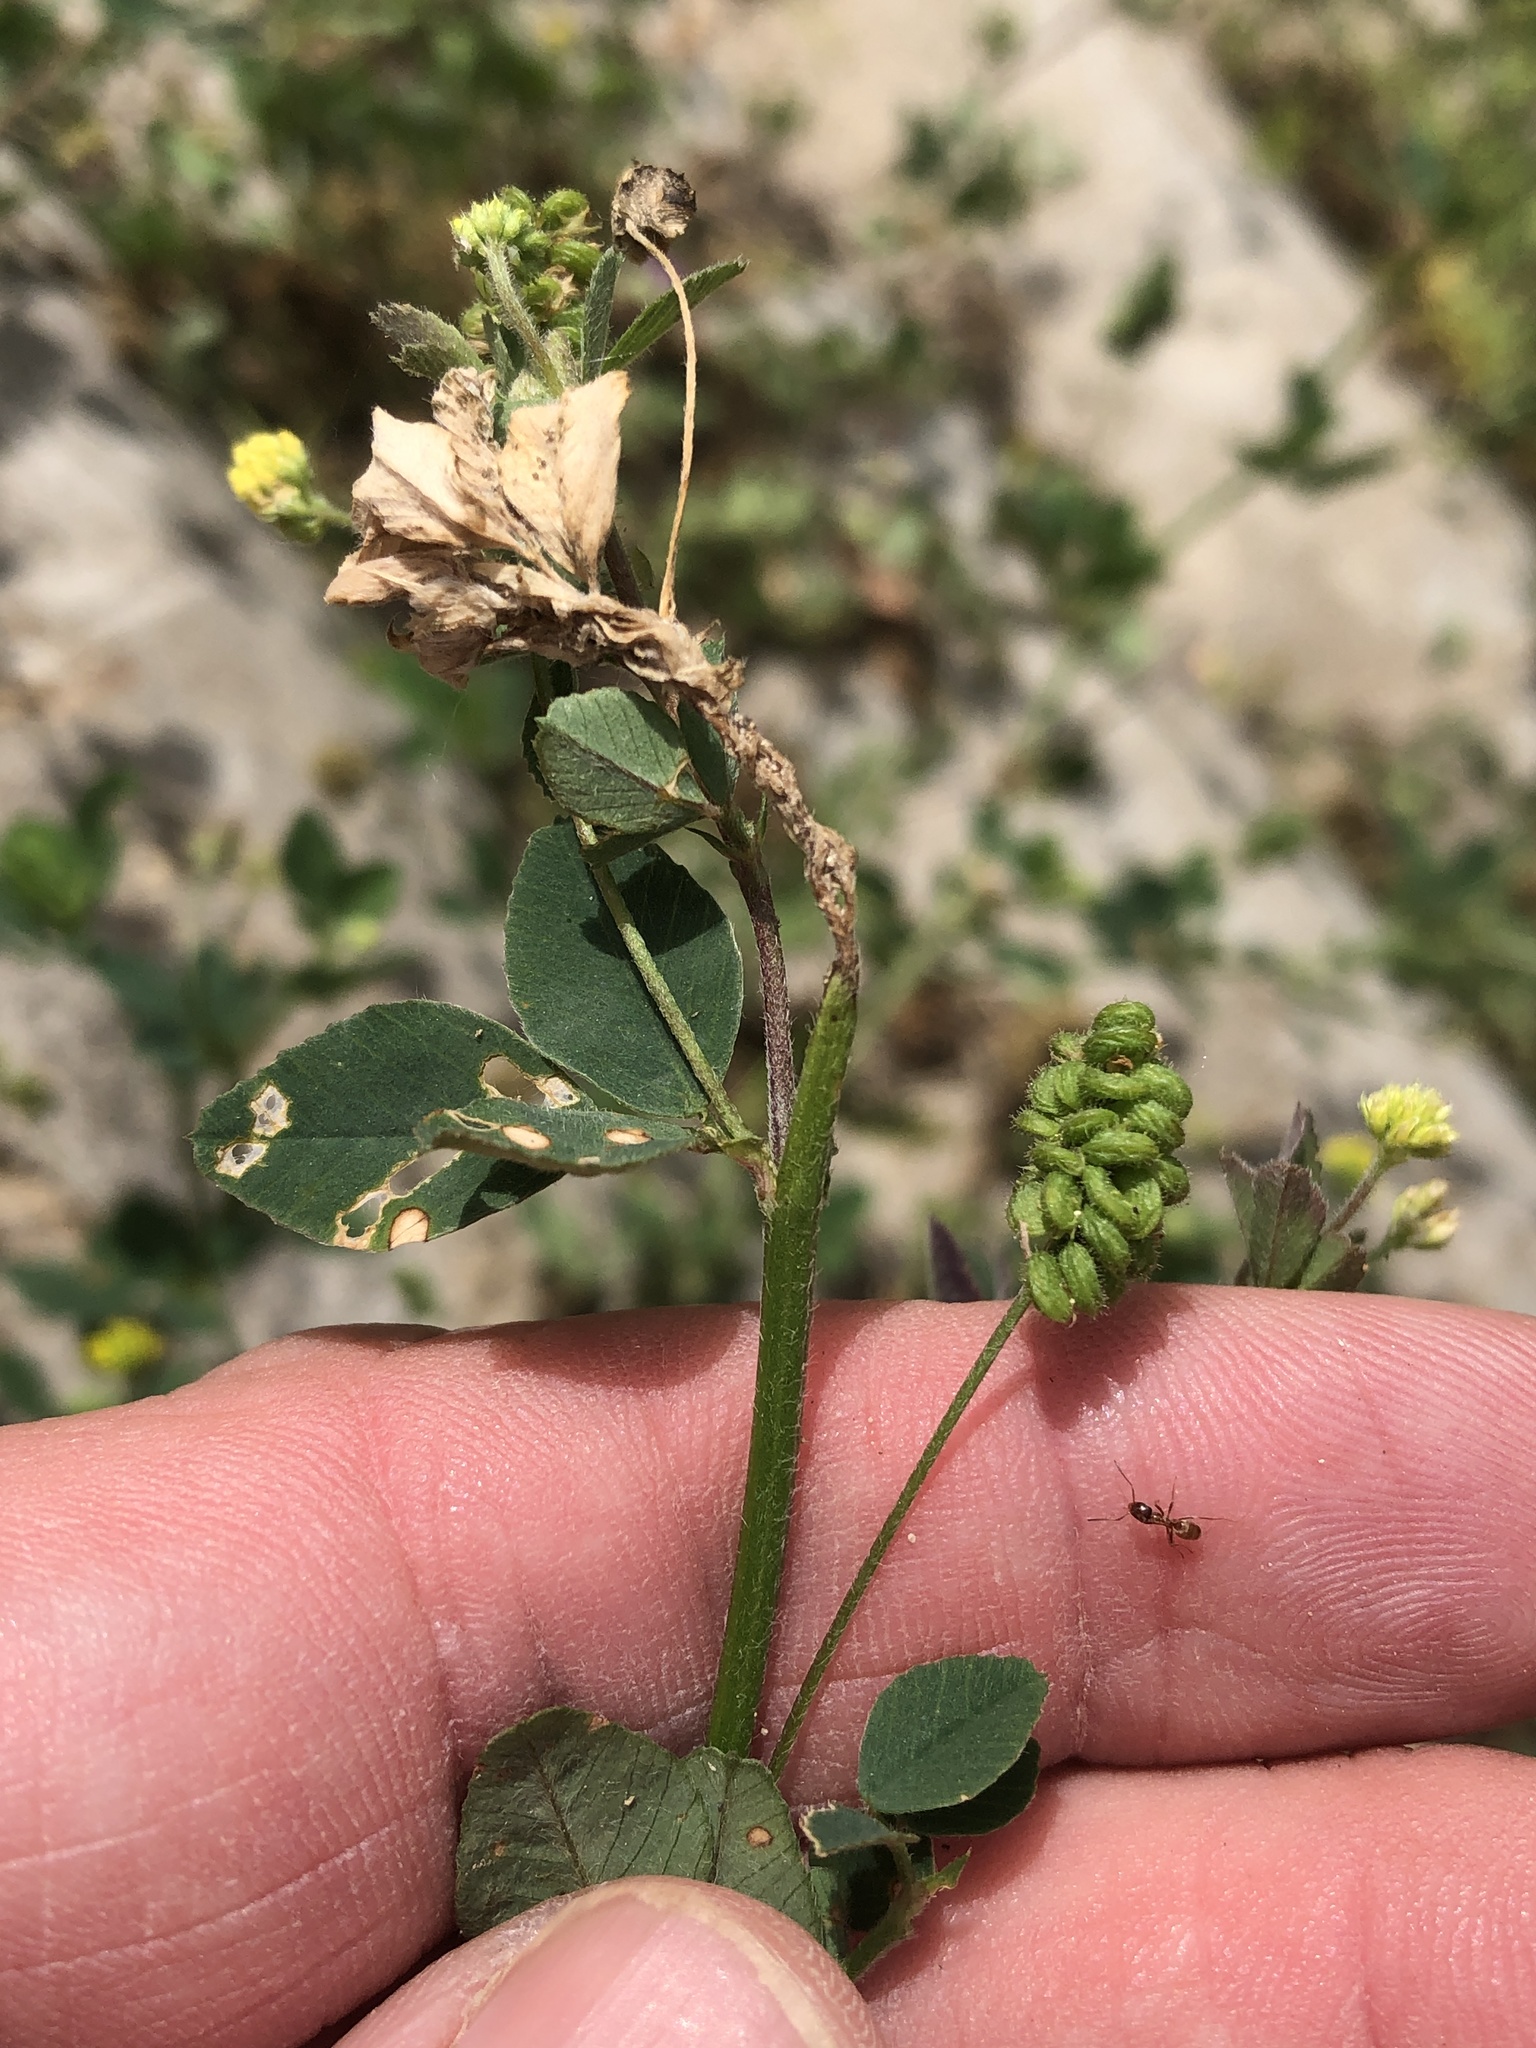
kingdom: Plantae
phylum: Tracheophyta
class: Magnoliopsida
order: Fabales
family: Fabaceae
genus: Medicago
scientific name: Medicago lupulina
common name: Black medick
